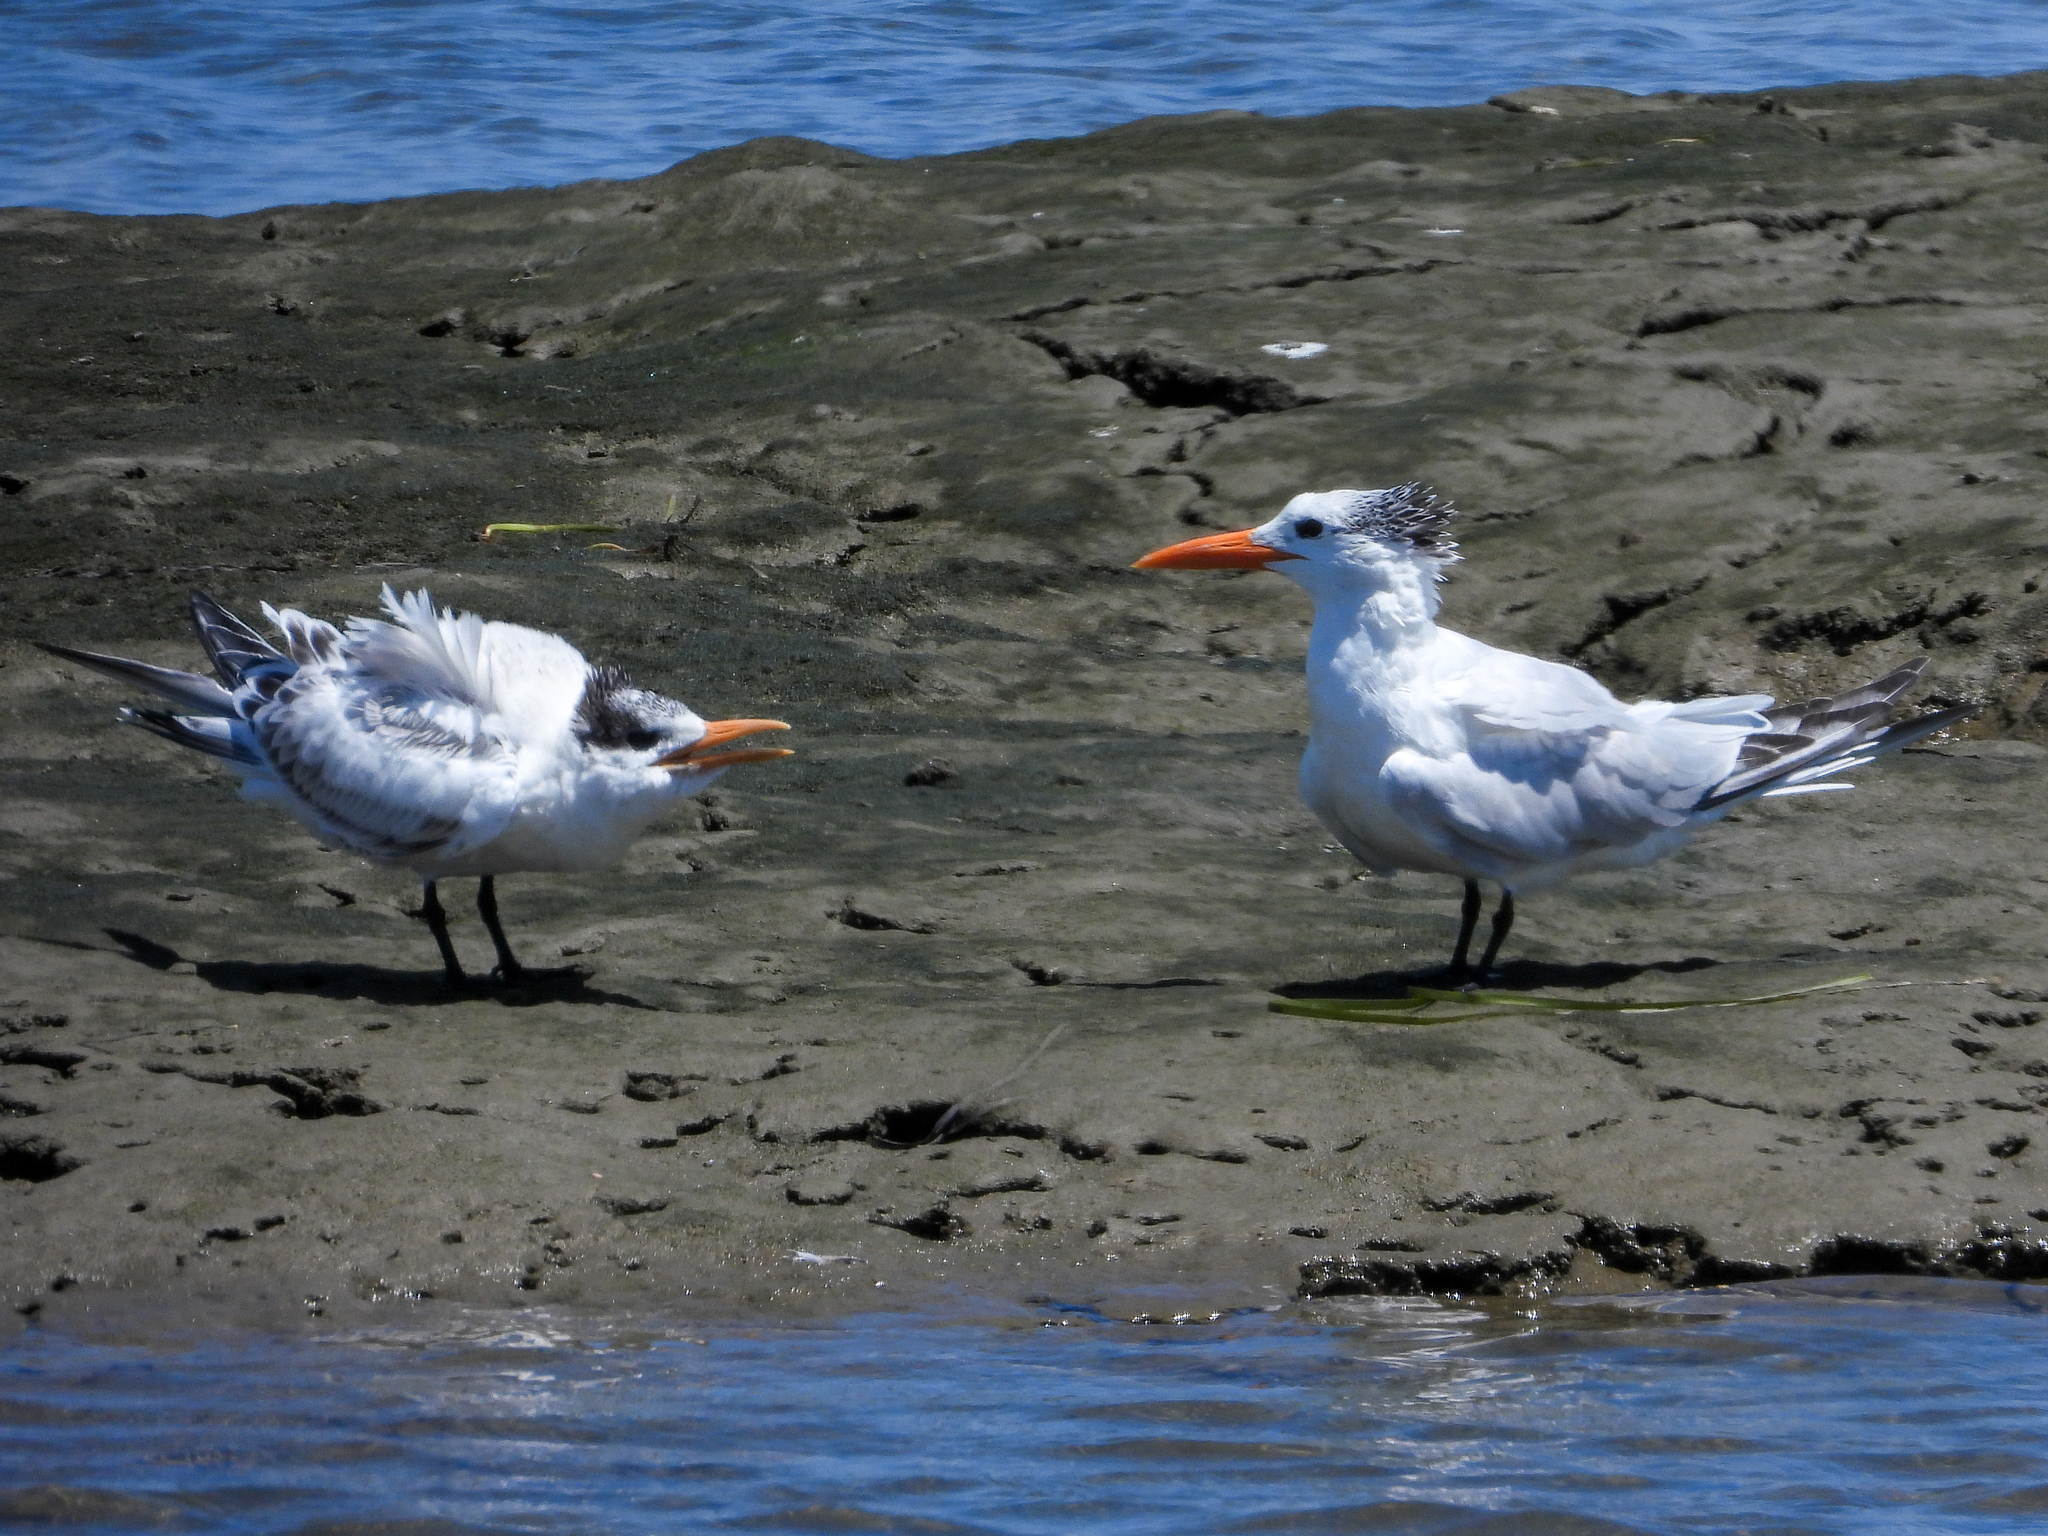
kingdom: Animalia
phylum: Chordata
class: Aves
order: Charadriiformes
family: Laridae
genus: Thalasseus
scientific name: Thalasseus maximus
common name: Royal tern
